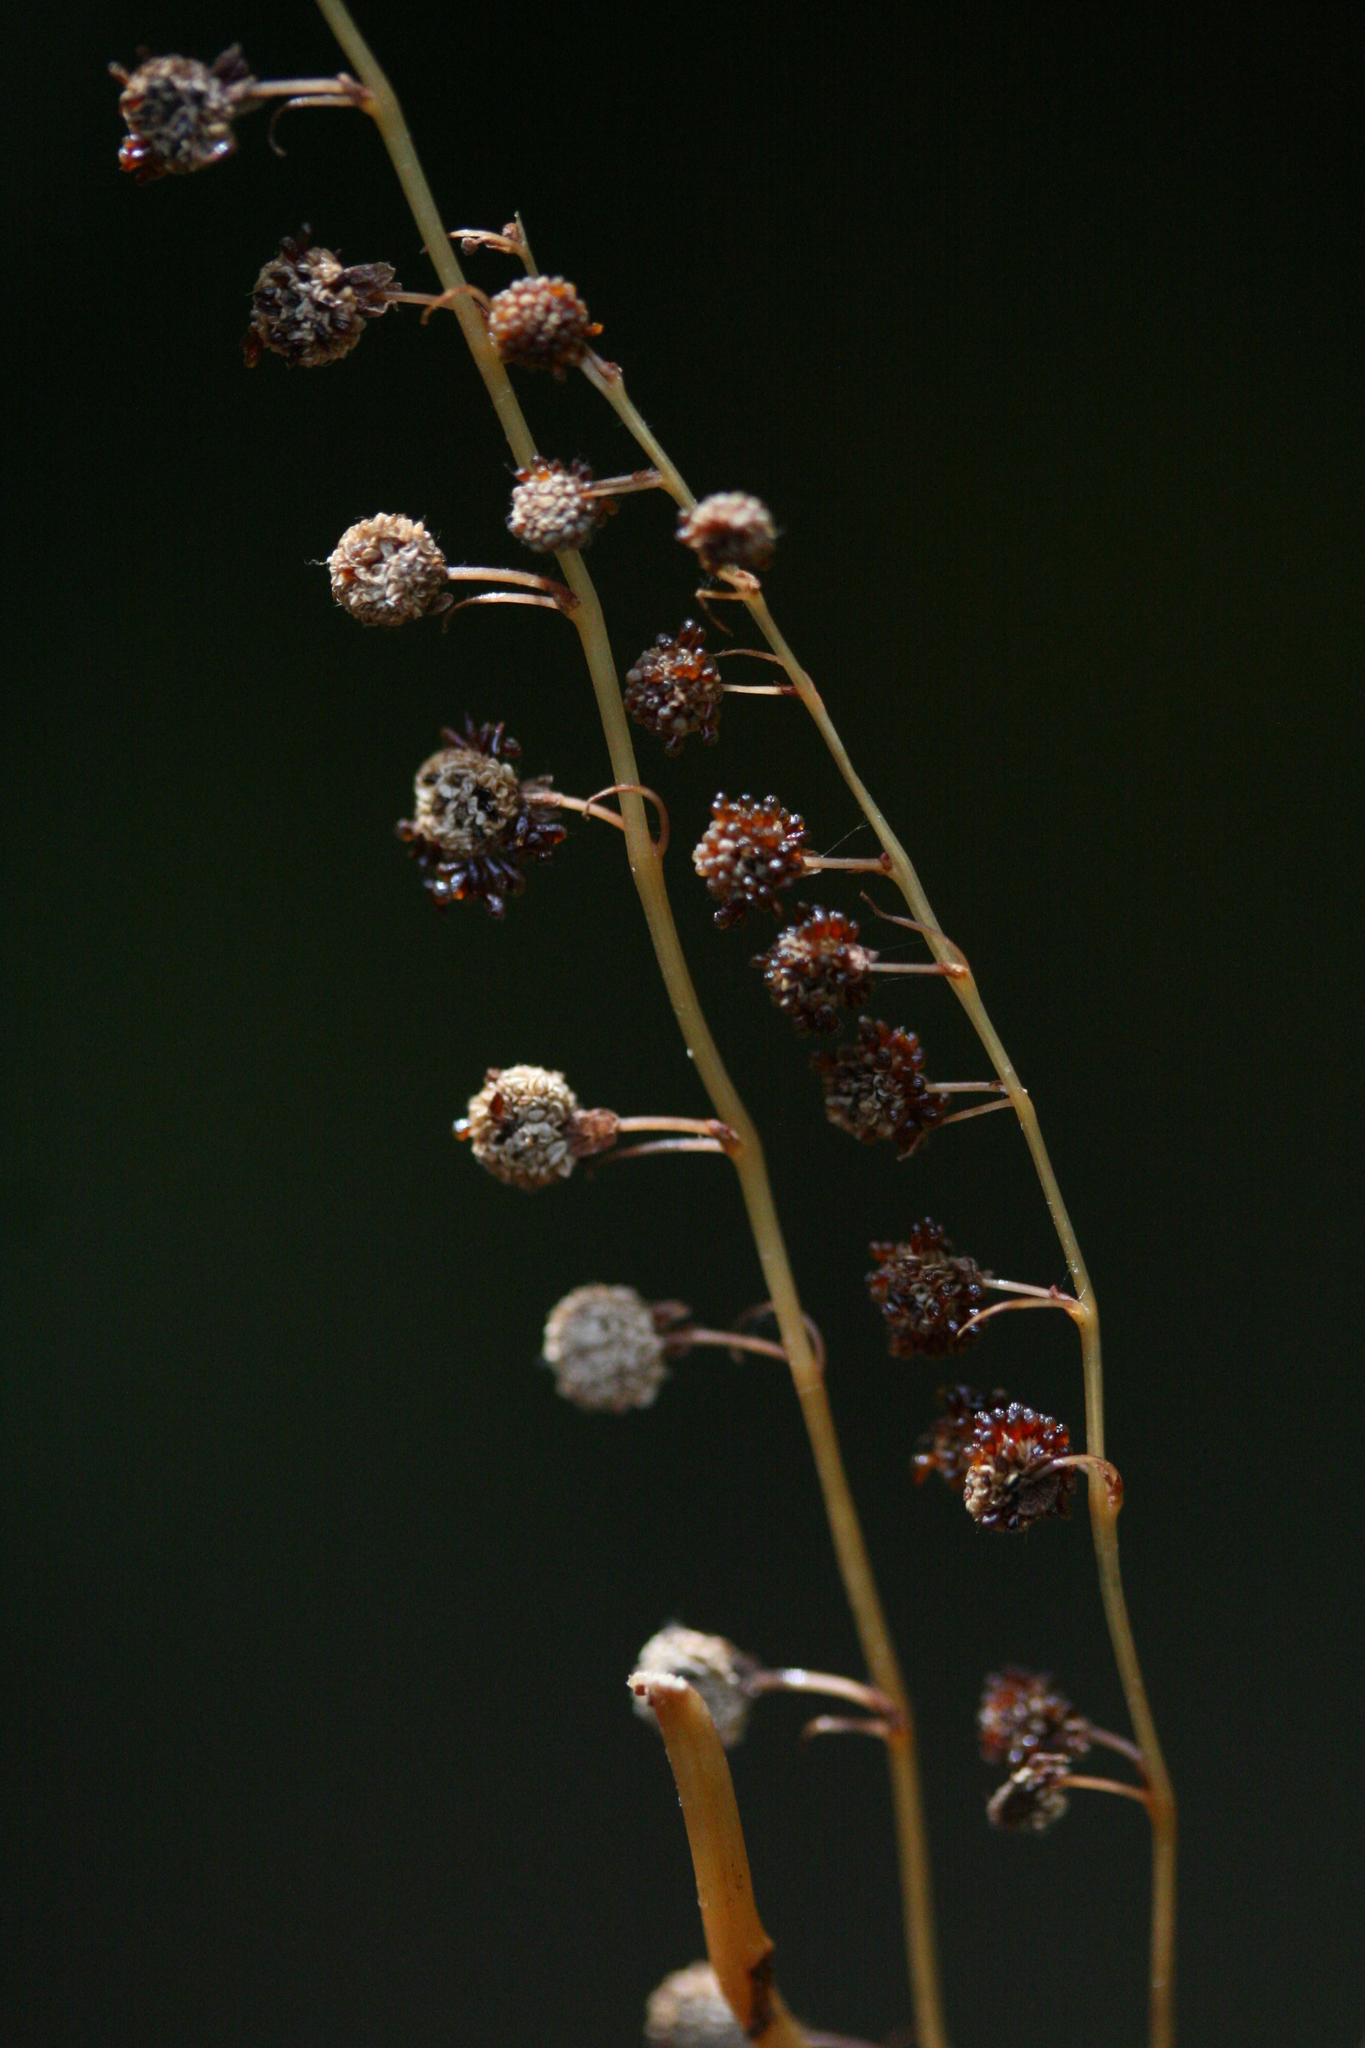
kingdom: Plantae
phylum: Tracheophyta
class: Liliopsida
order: Pandanales
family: Triuridaceae
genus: Sciaphila
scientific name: Sciaphila madagascariensis
